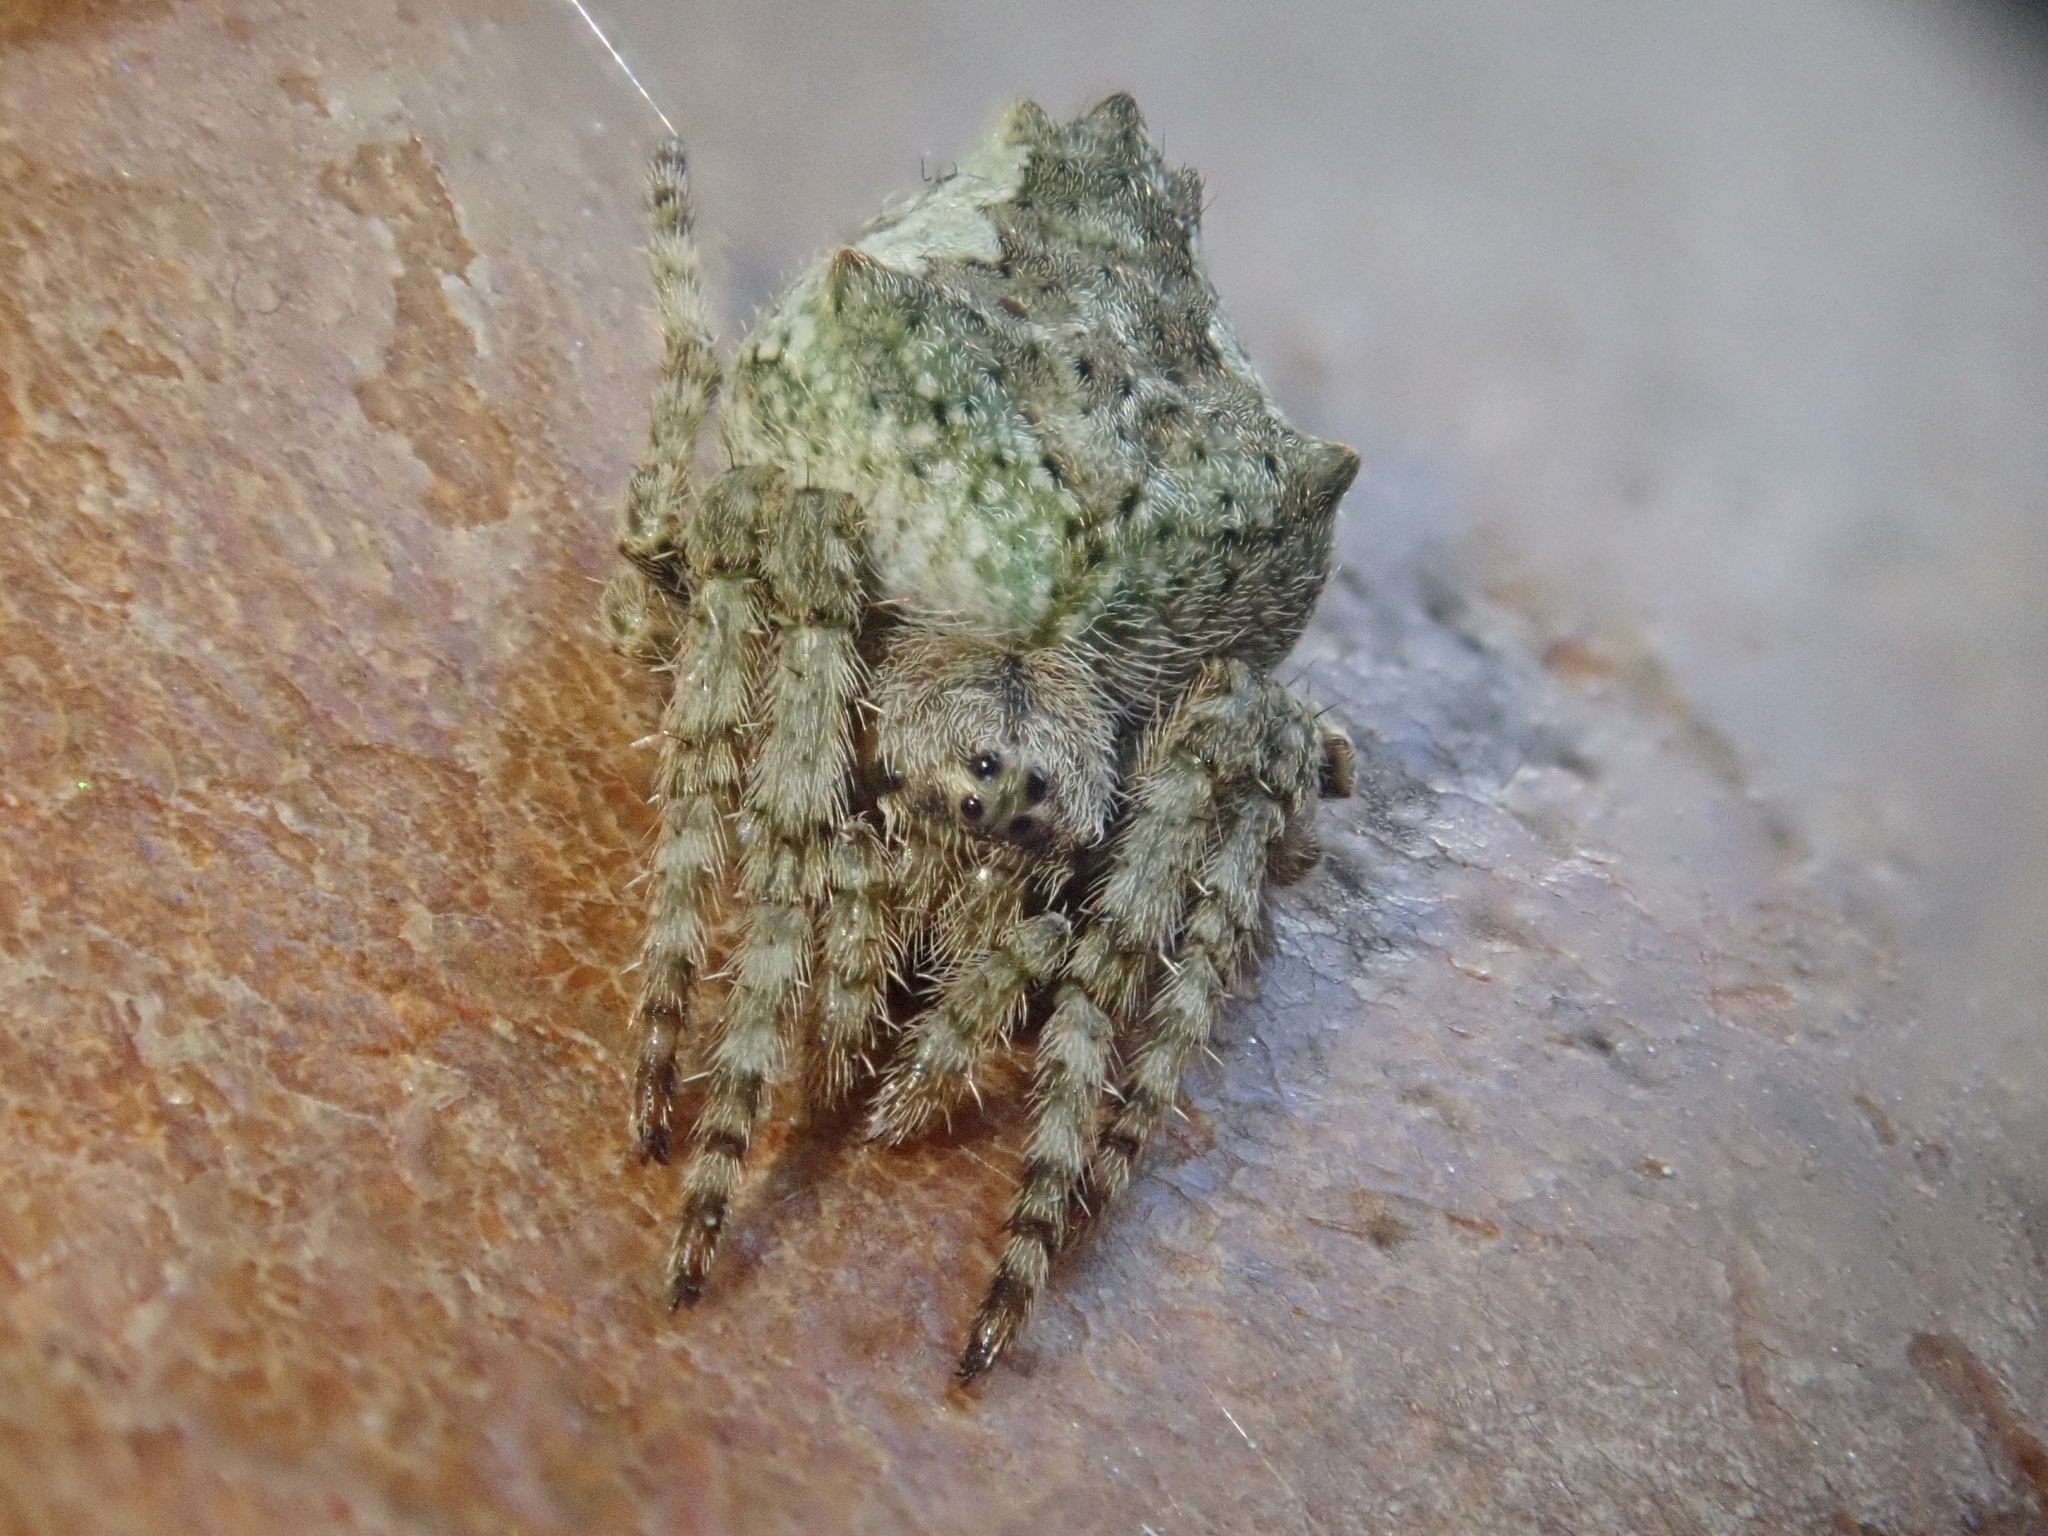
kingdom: Animalia
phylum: Arthropoda
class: Arachnida
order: Araneae
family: Araneidae
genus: Eriophora
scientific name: Eriophora pustulosa
